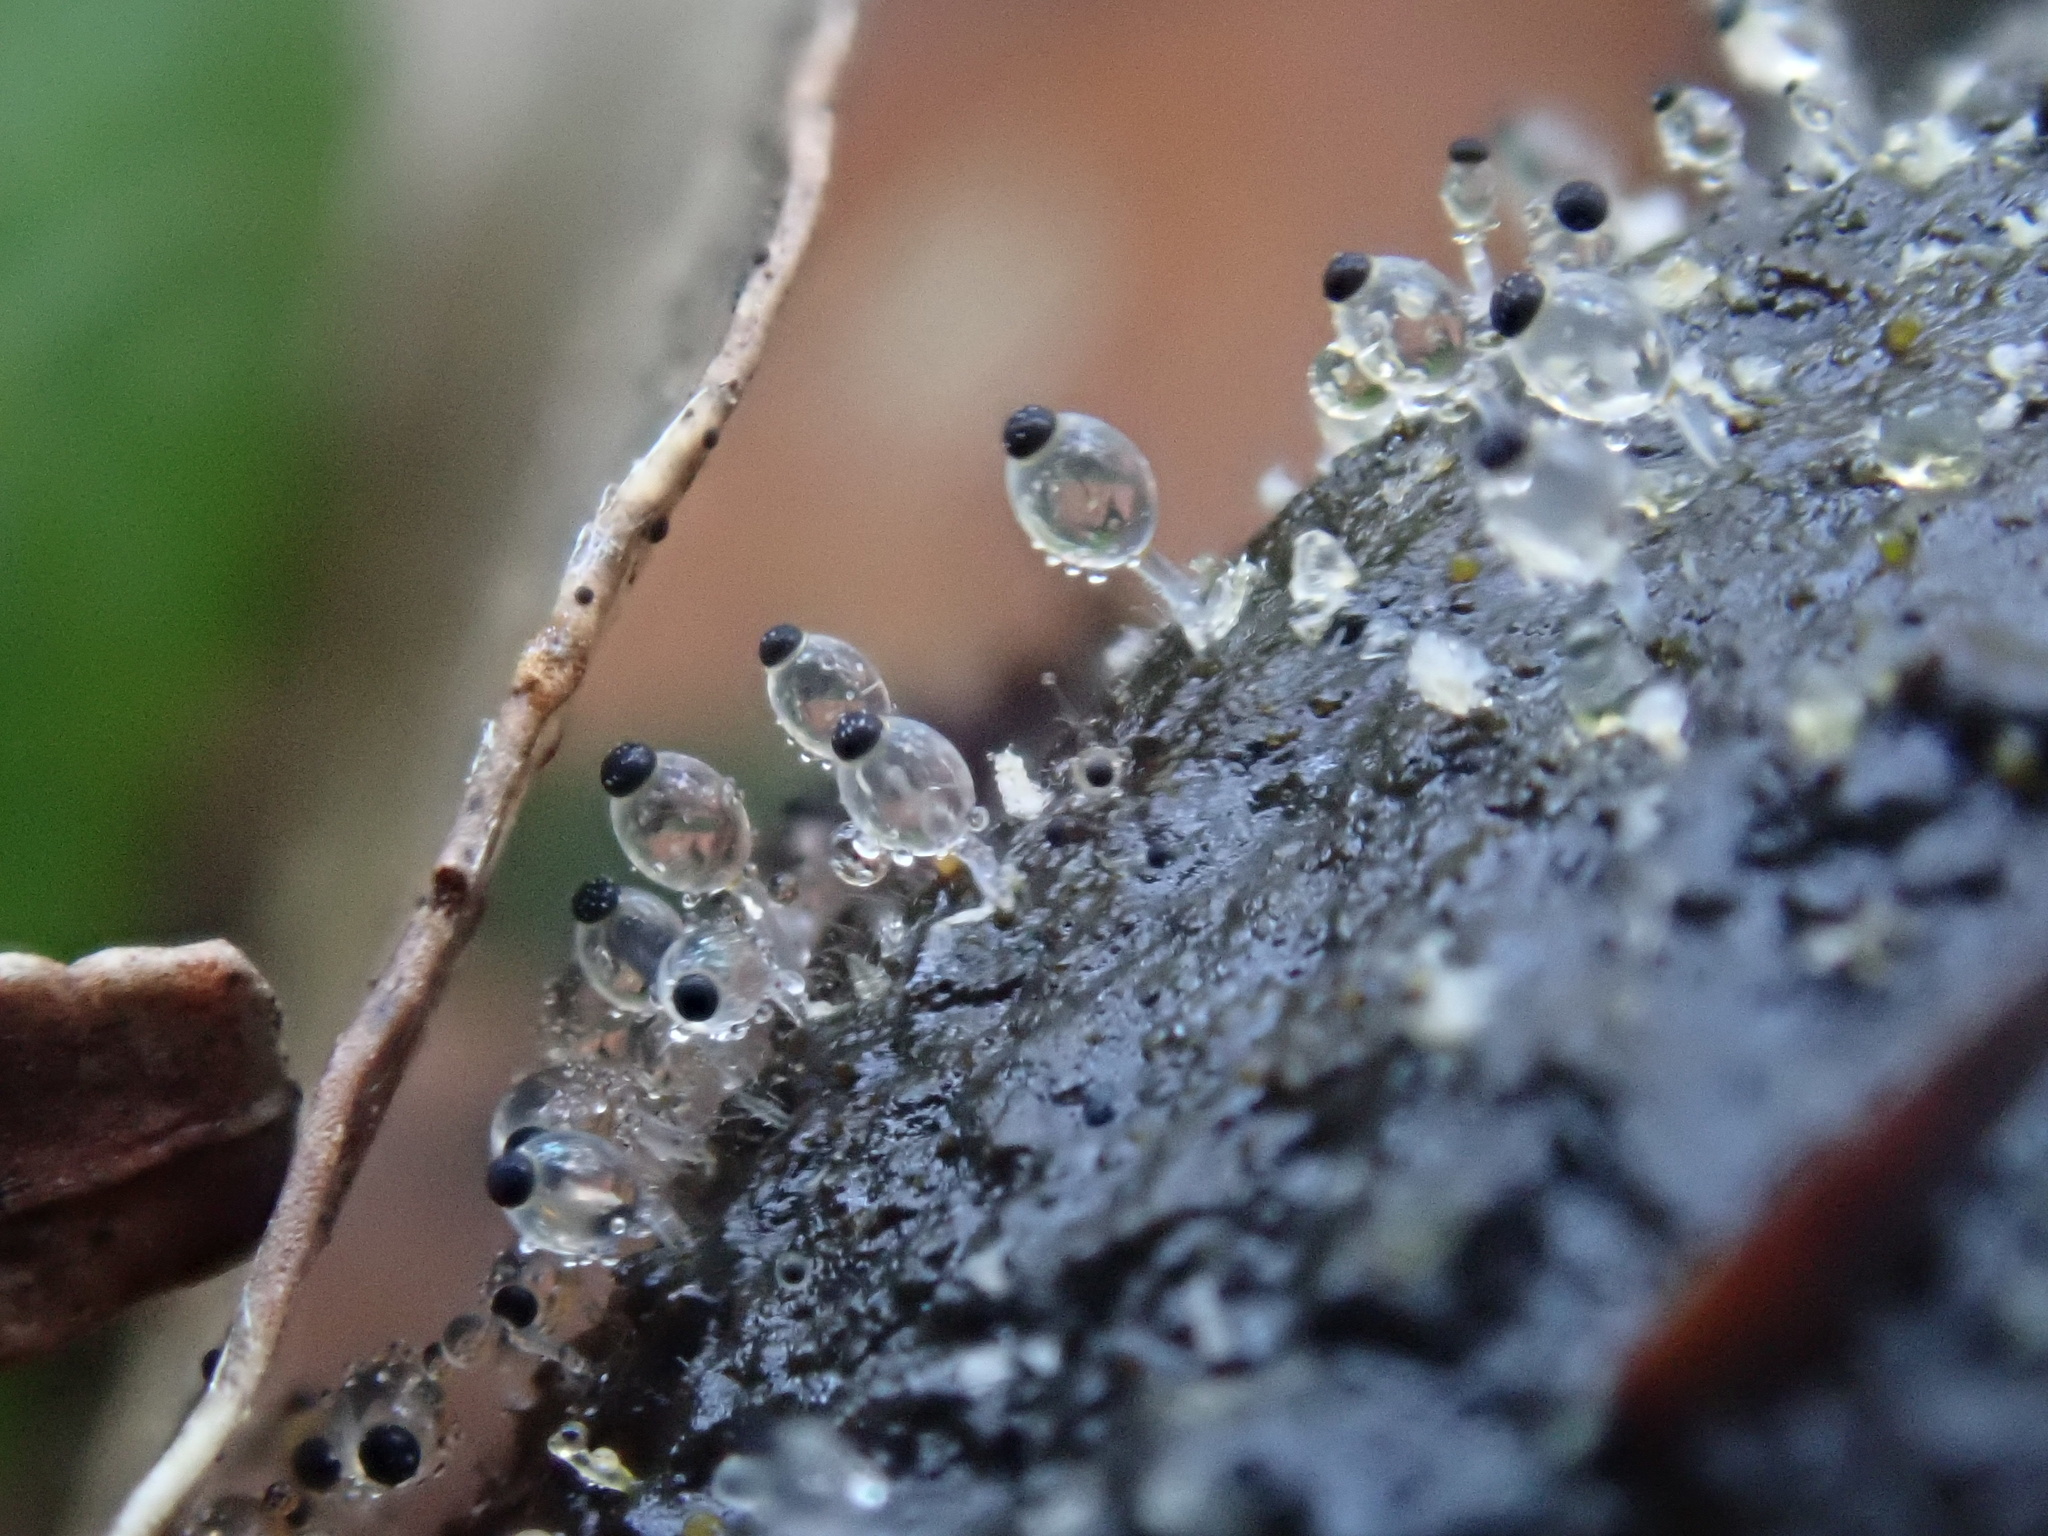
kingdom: Fungi
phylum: Mucoromycota
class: Mucoromycetes
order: Mucorales
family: Pilobolaceae
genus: Pilobolus
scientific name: Pilobolus
